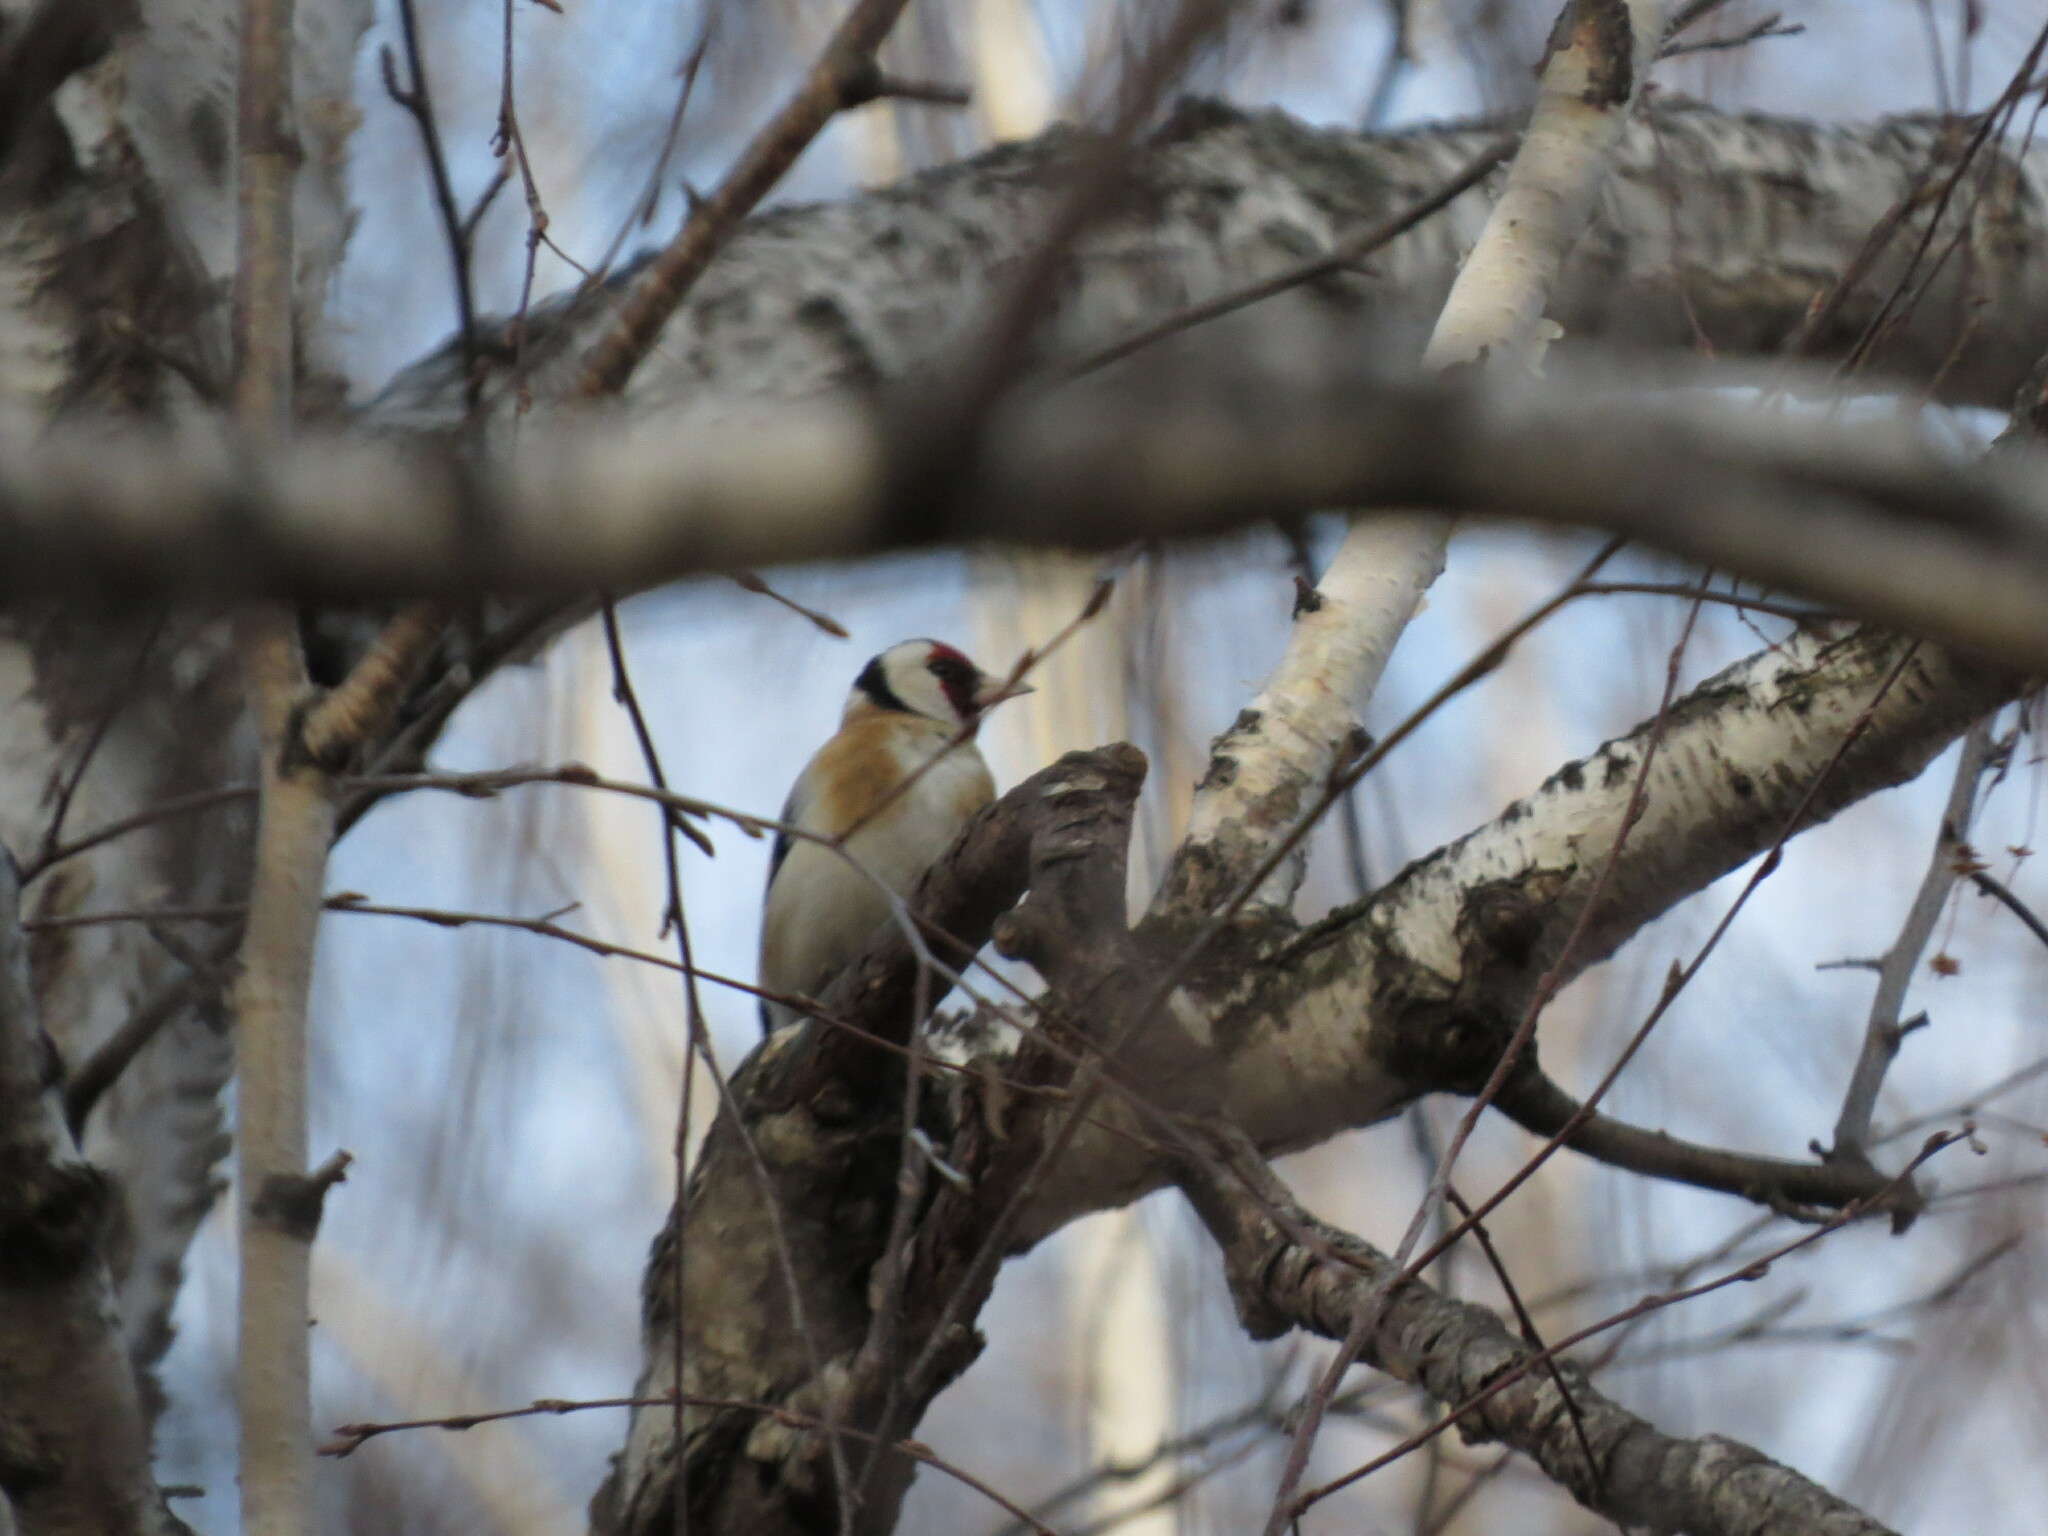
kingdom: Animalia
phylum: Chordata
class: Aves
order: Passeriformes
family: Fringillidae
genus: Carduelis
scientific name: Carduelis carduelis
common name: European goldfinch
